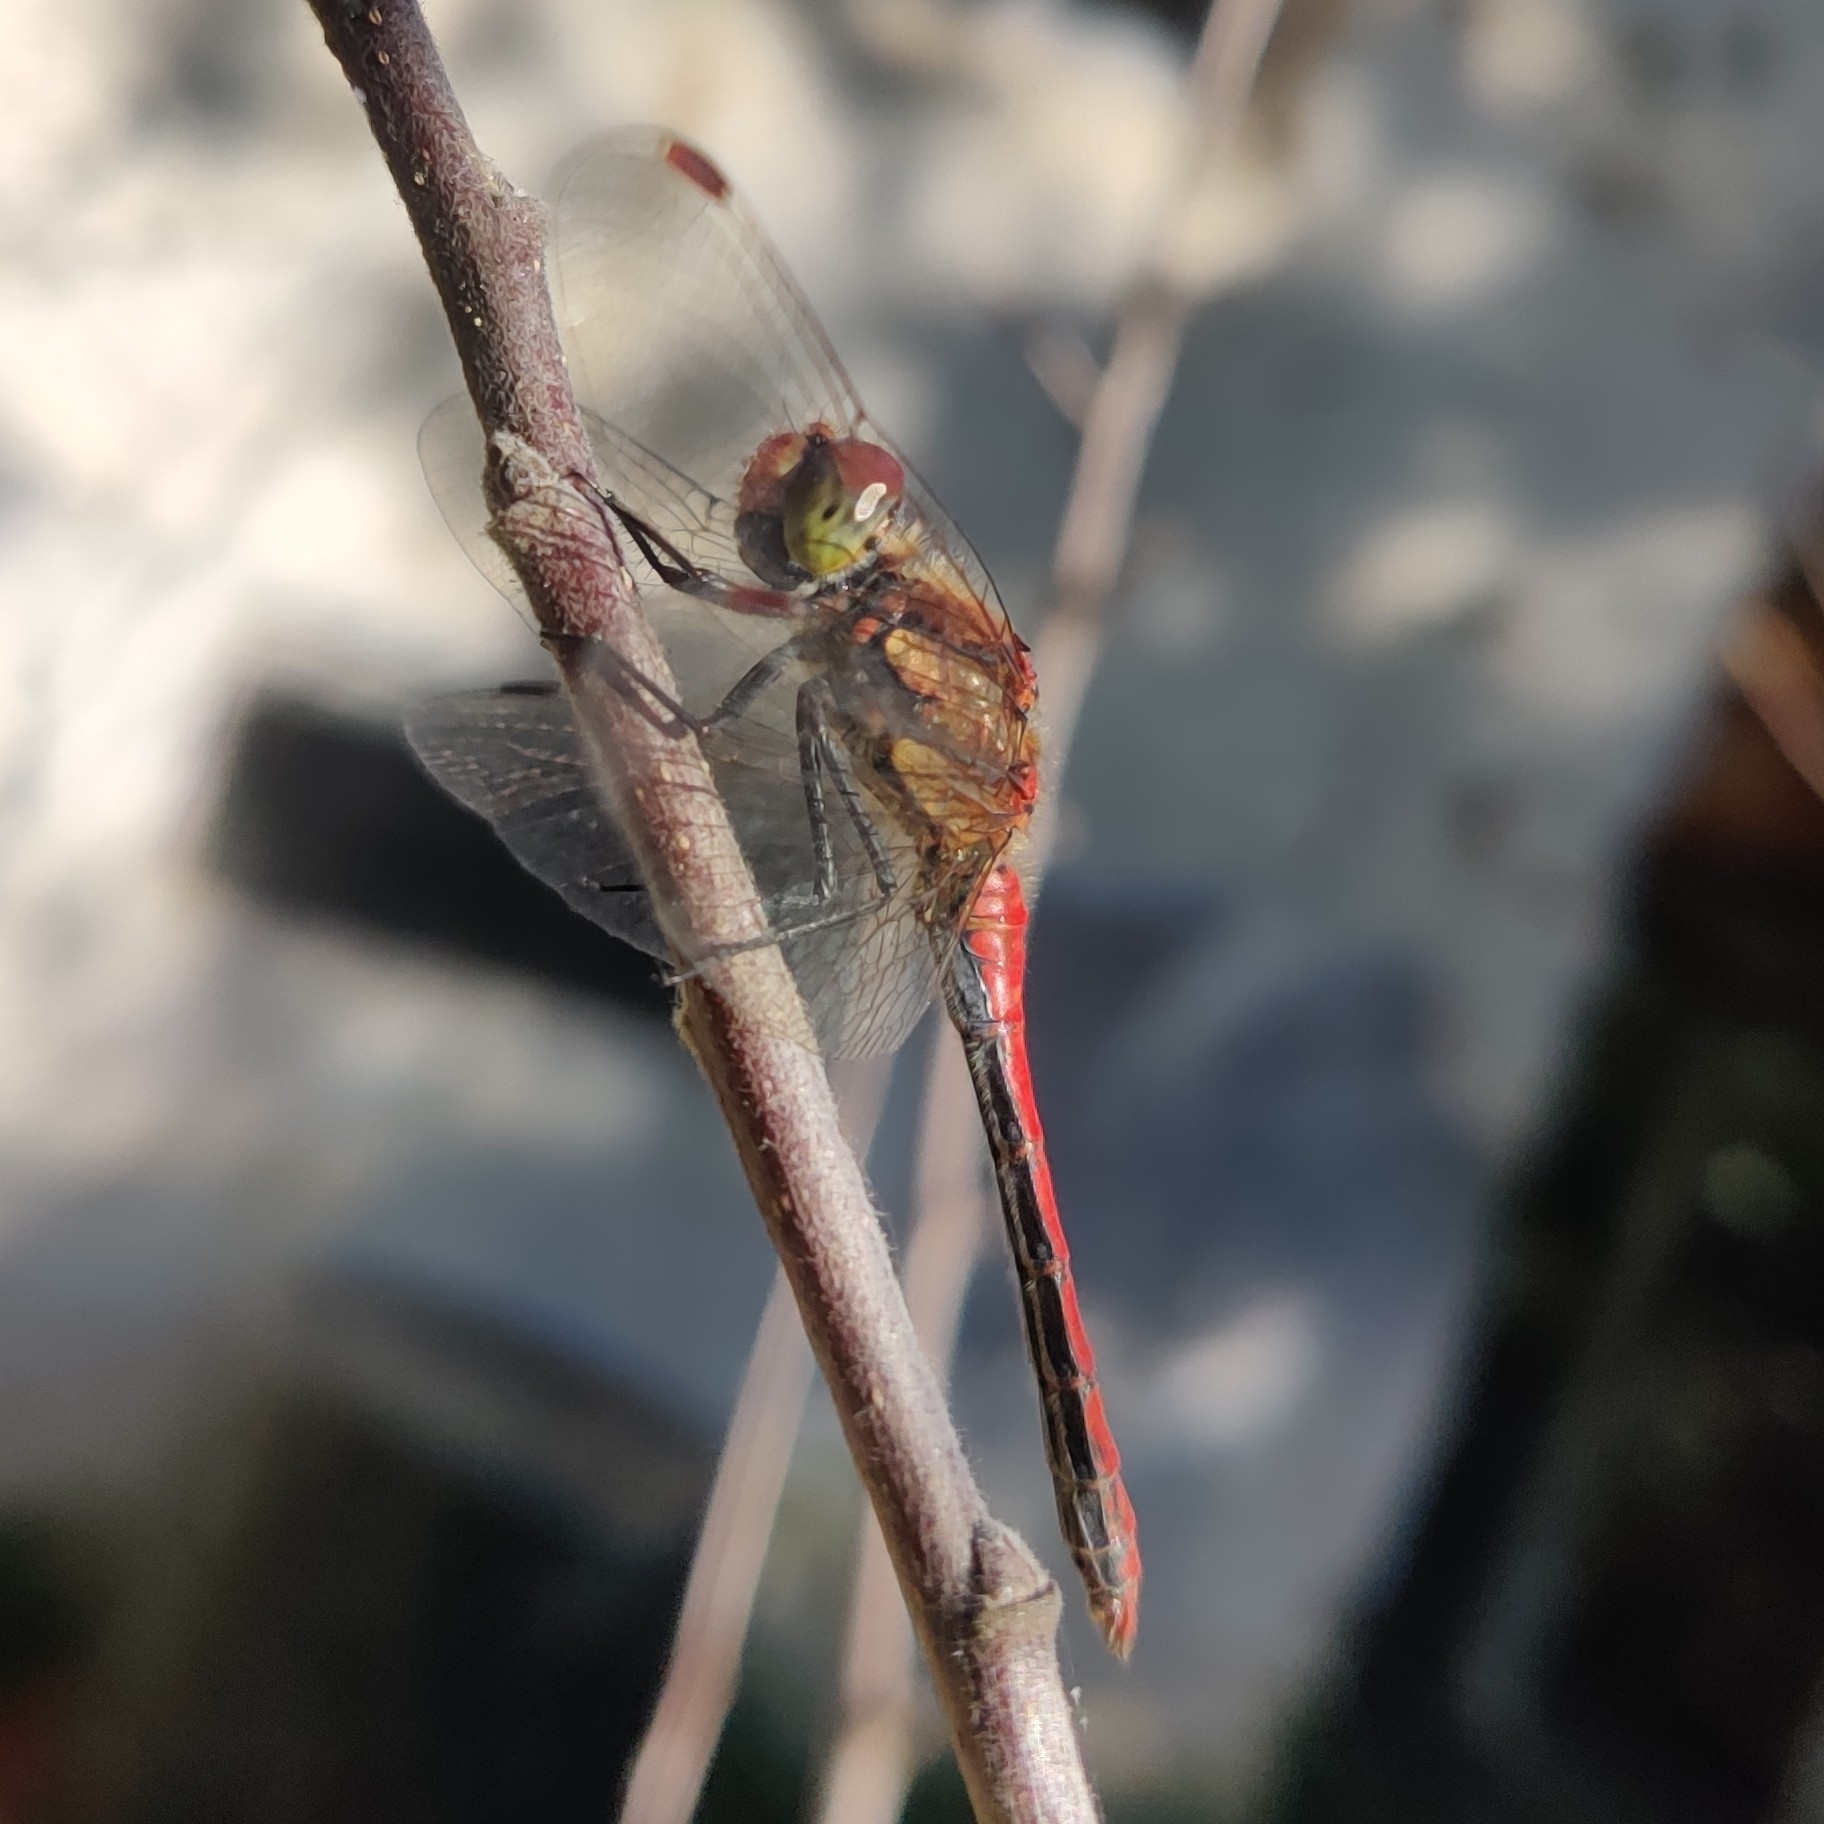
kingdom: Animalia
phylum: Arthropoda
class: Insecta
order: Odonata
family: Libellulidae
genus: Sympetrum
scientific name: Sympetrum striolatum
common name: Common darter
